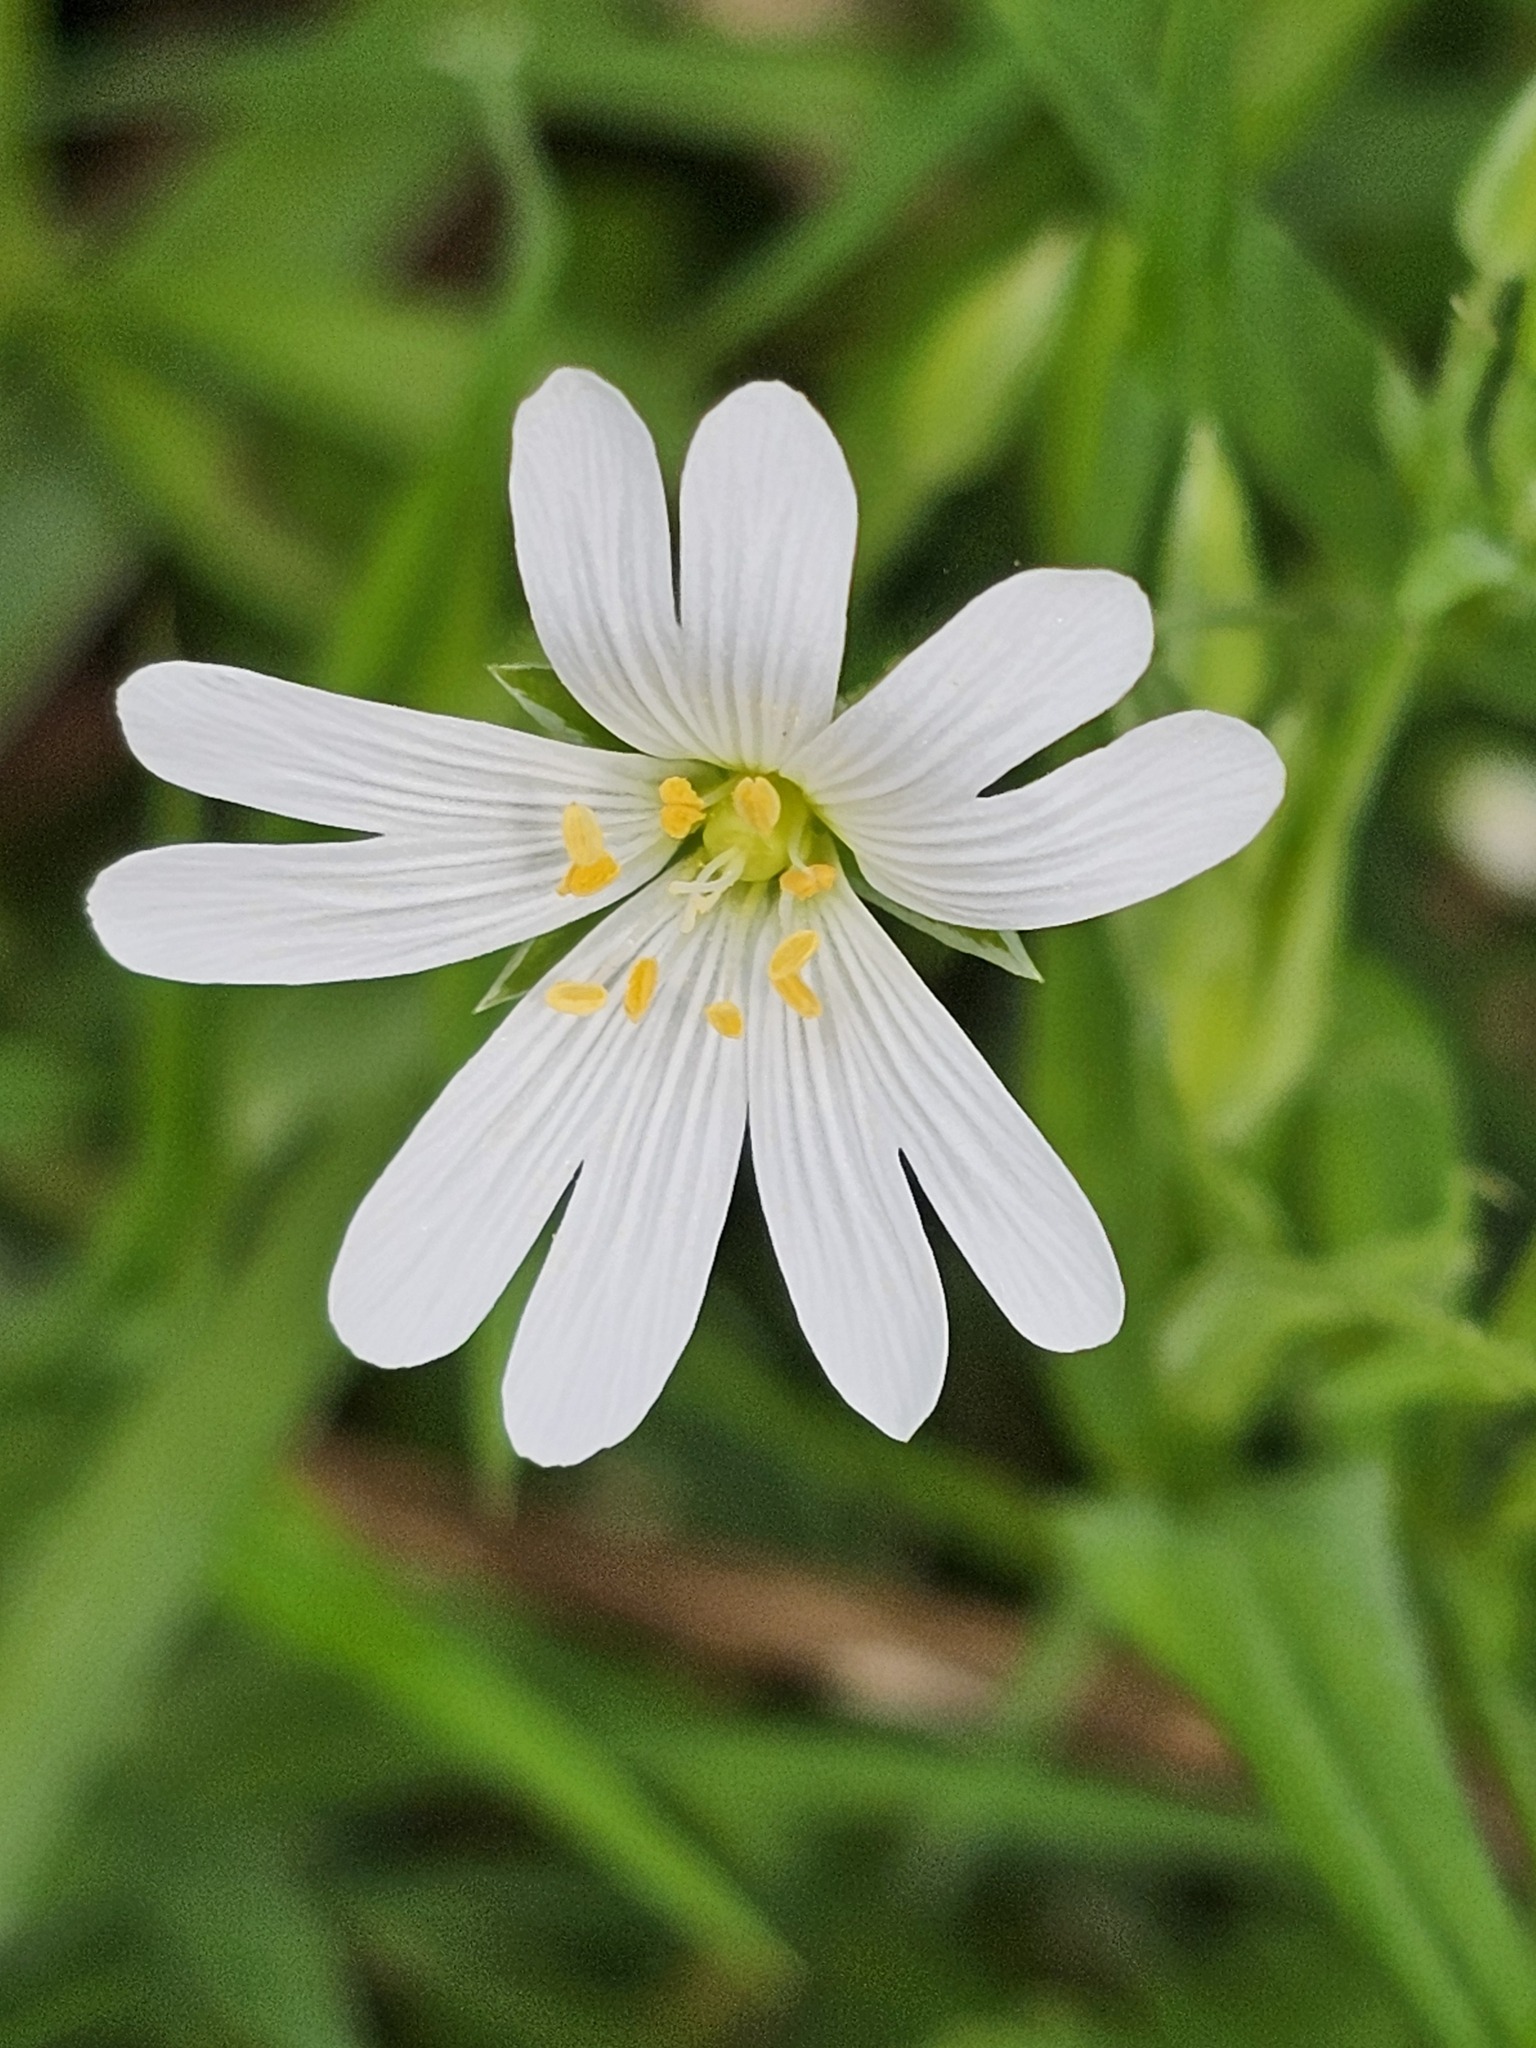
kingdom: Plantae
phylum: Tracheophyta
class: Magnoliopsida
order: Caryophyllales
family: Caryophyllaceae
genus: Rabelera
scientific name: Rabelera holostea
